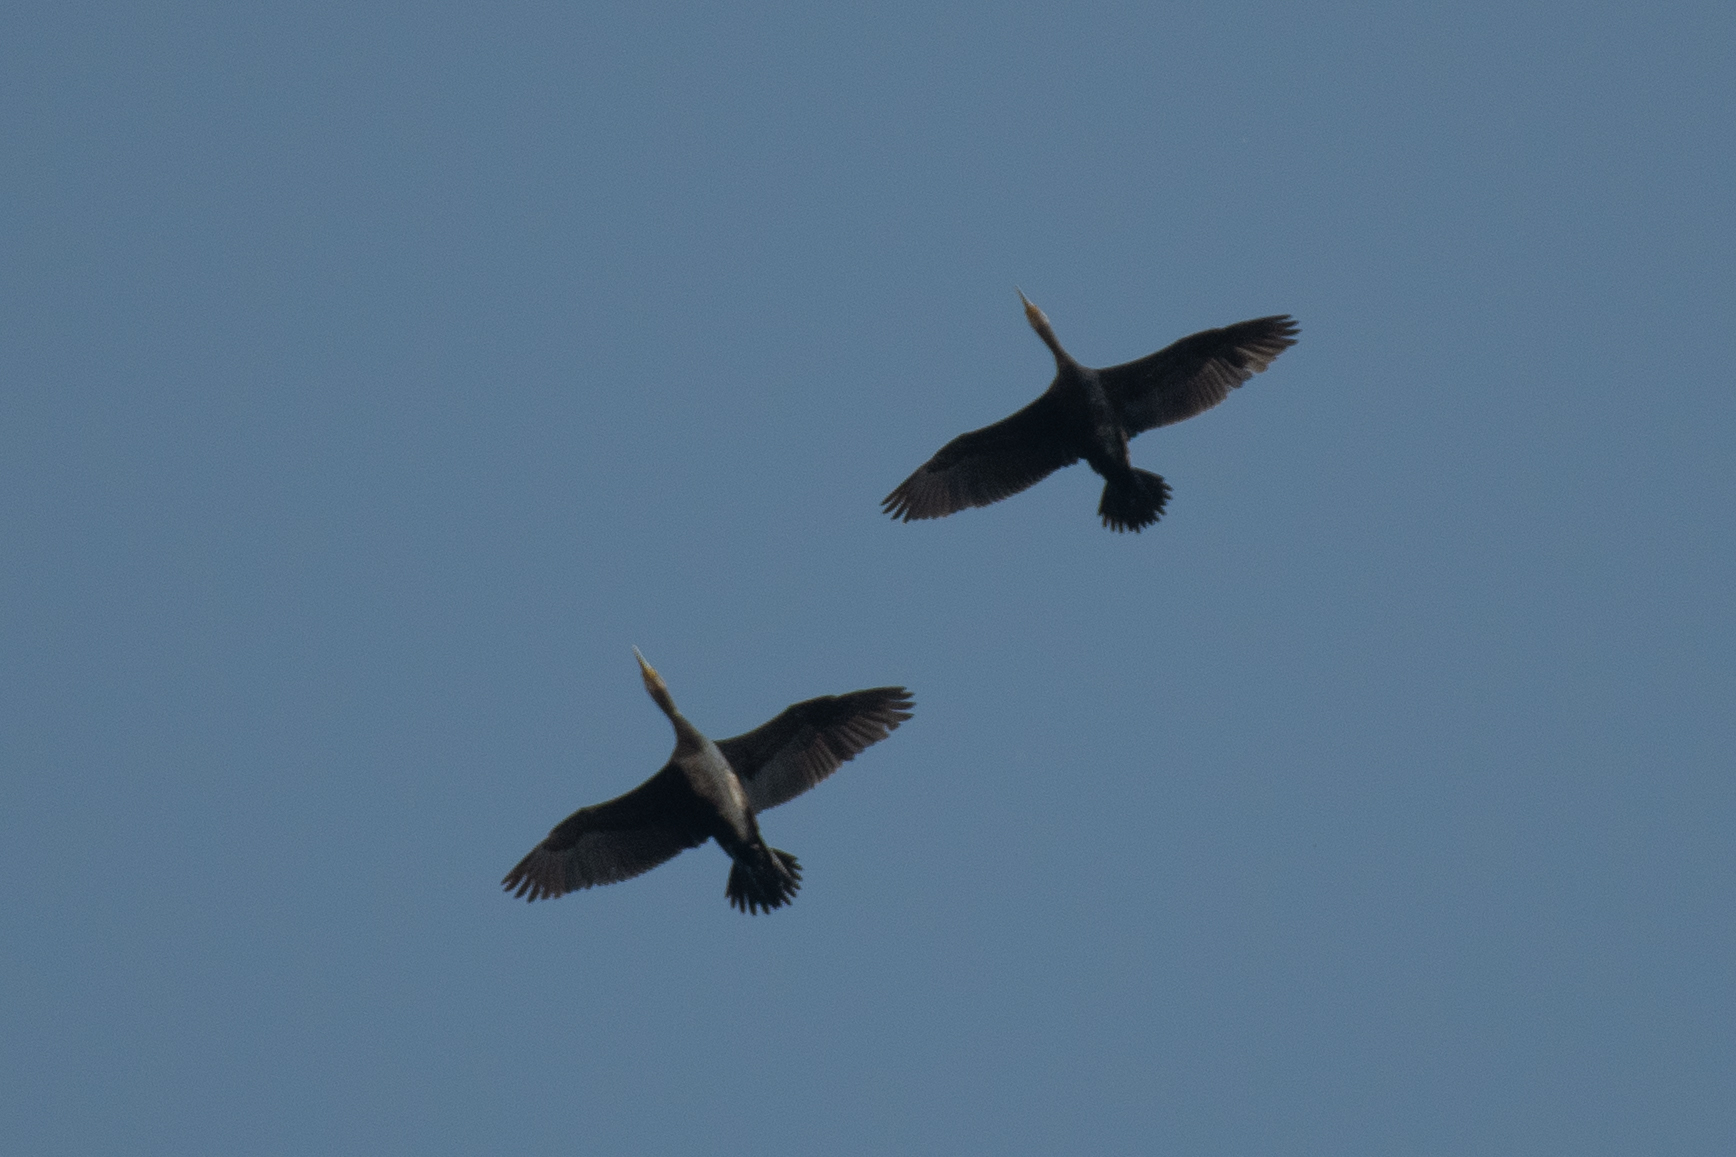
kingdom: Animalia
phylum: Chordata
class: Aves
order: Suliformes
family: Phalacrocoracidae
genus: Phalacrocorax
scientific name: Phalacrocorax carbo
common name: Great cormorant
